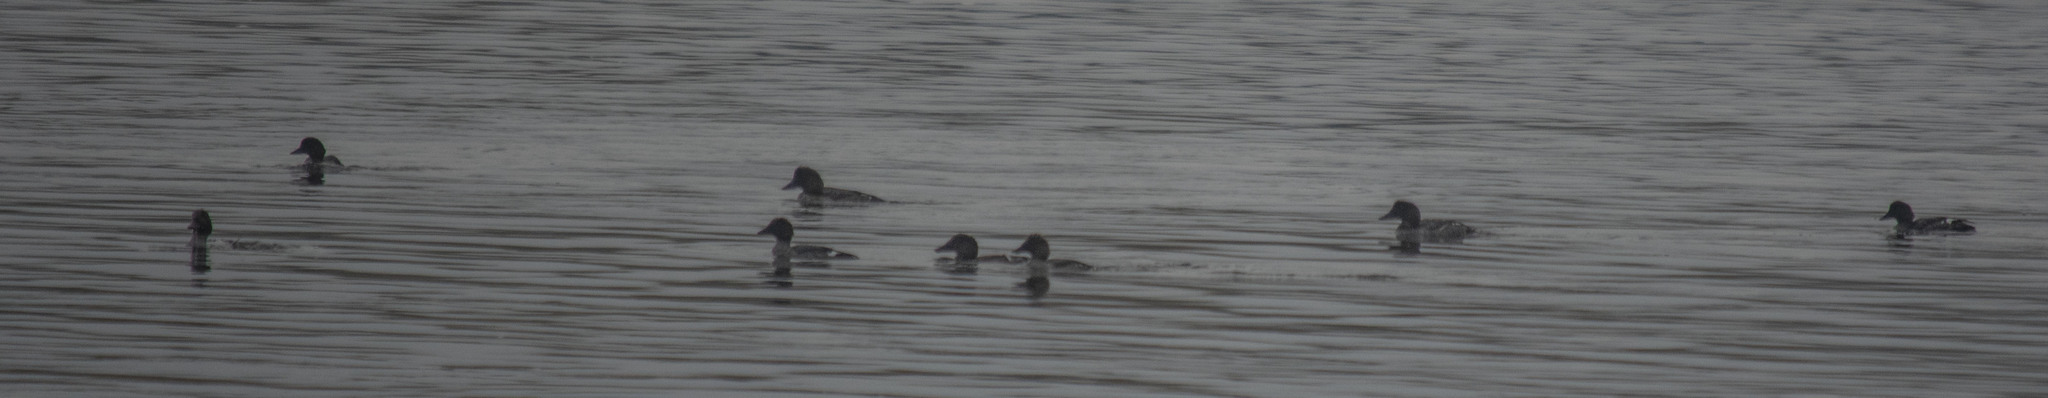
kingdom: Animalia
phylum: Chordata
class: Aves
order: Anseriformes
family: Anatidae
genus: Bucephala
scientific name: Bucephala clangula
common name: Common goldeneye
